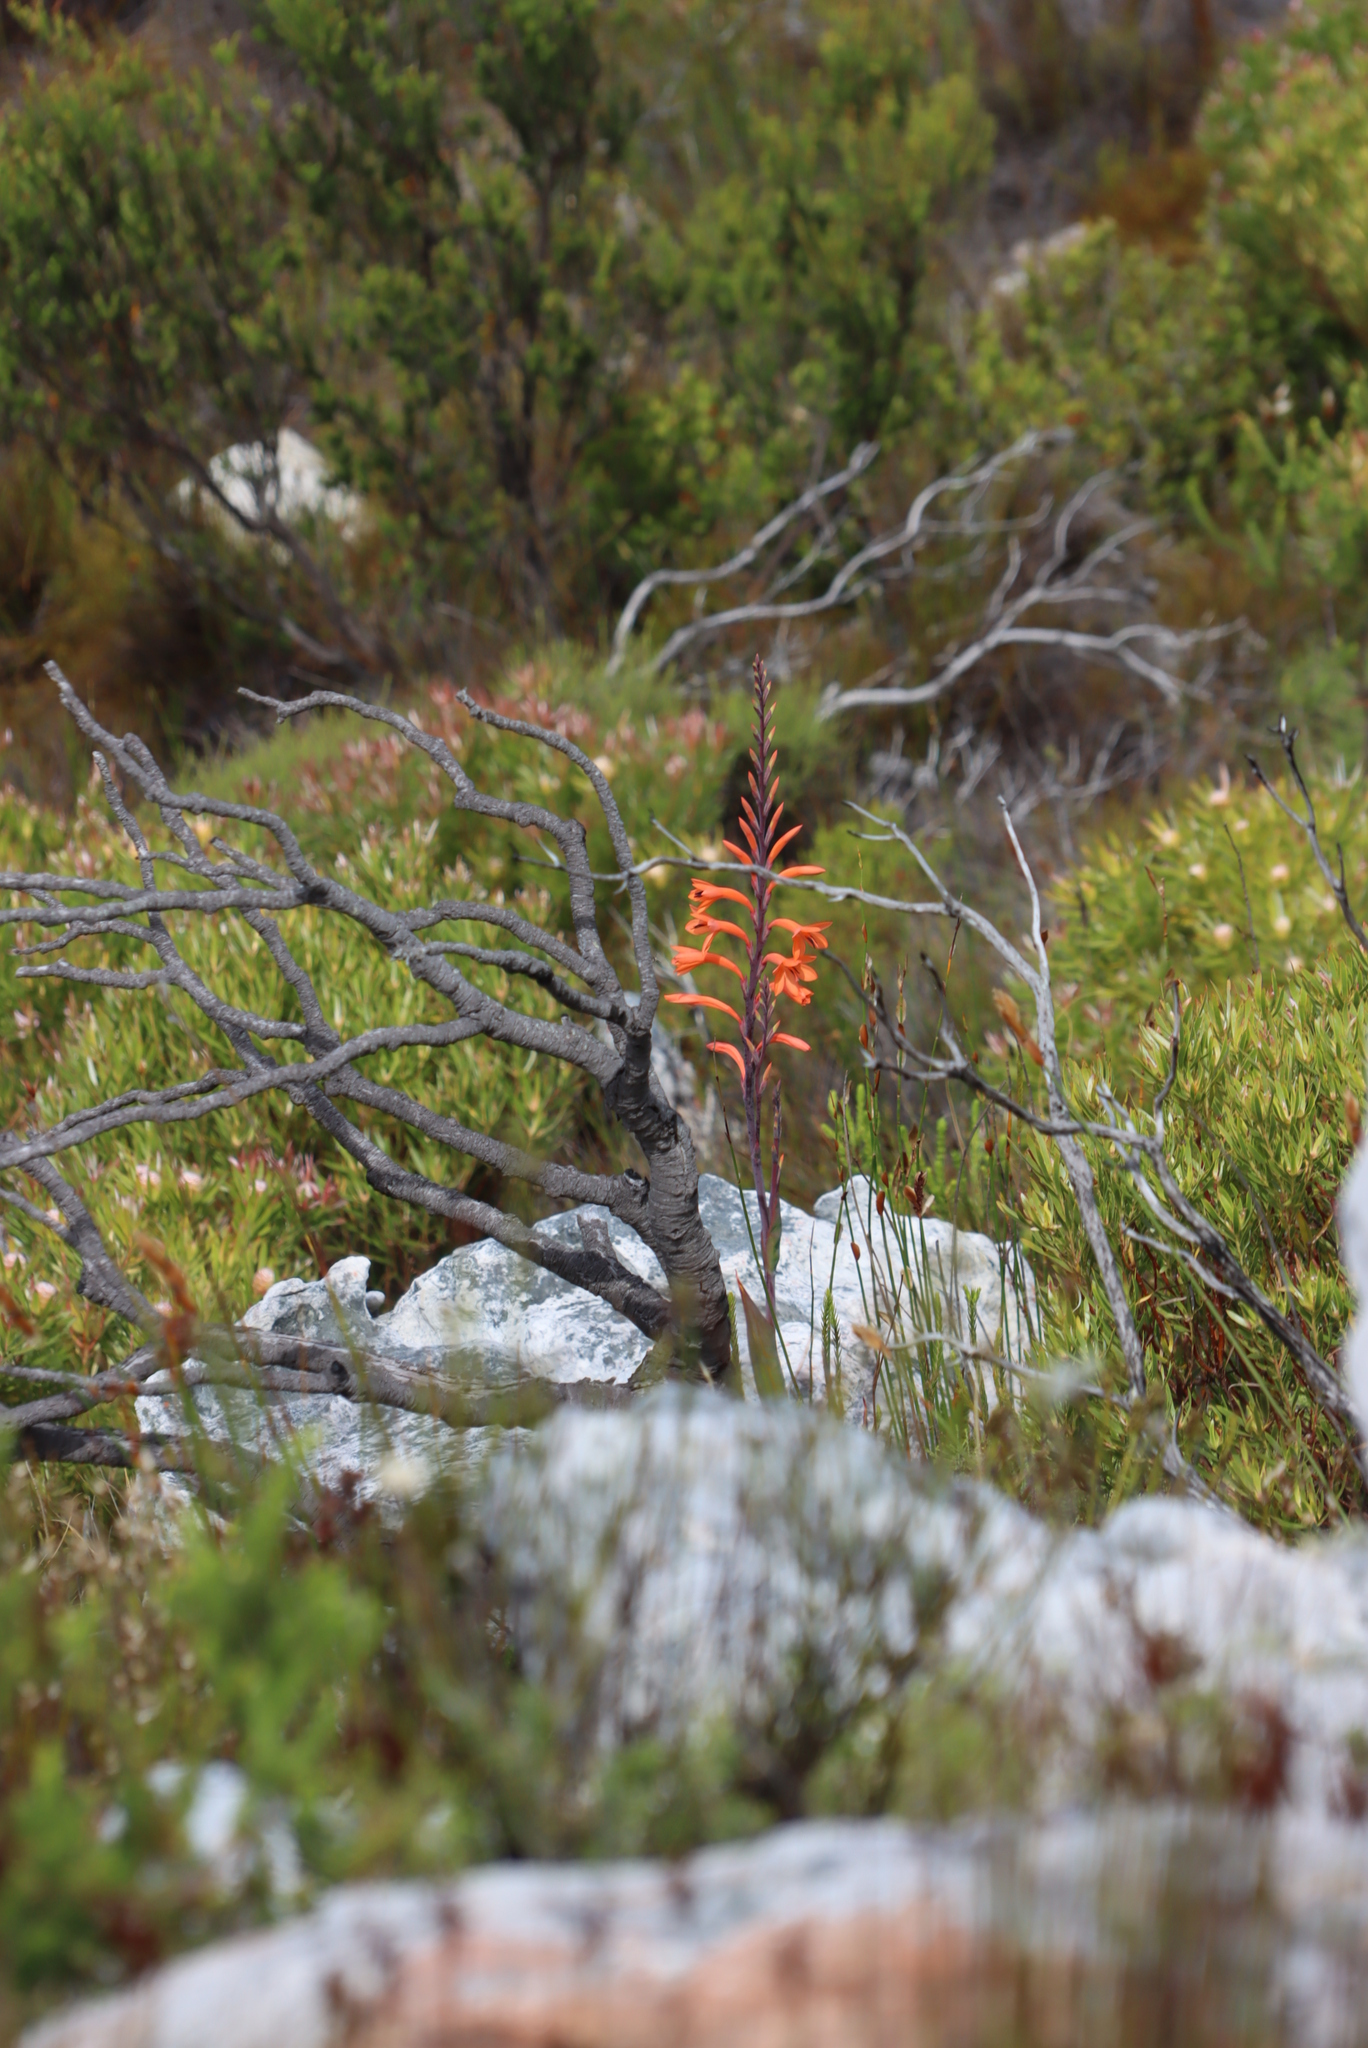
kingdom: Plantae
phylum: Tracheophyta
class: Liliopsida
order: Asparagales
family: Iridaceae
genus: Watsonia
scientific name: Watsonia tabularis
